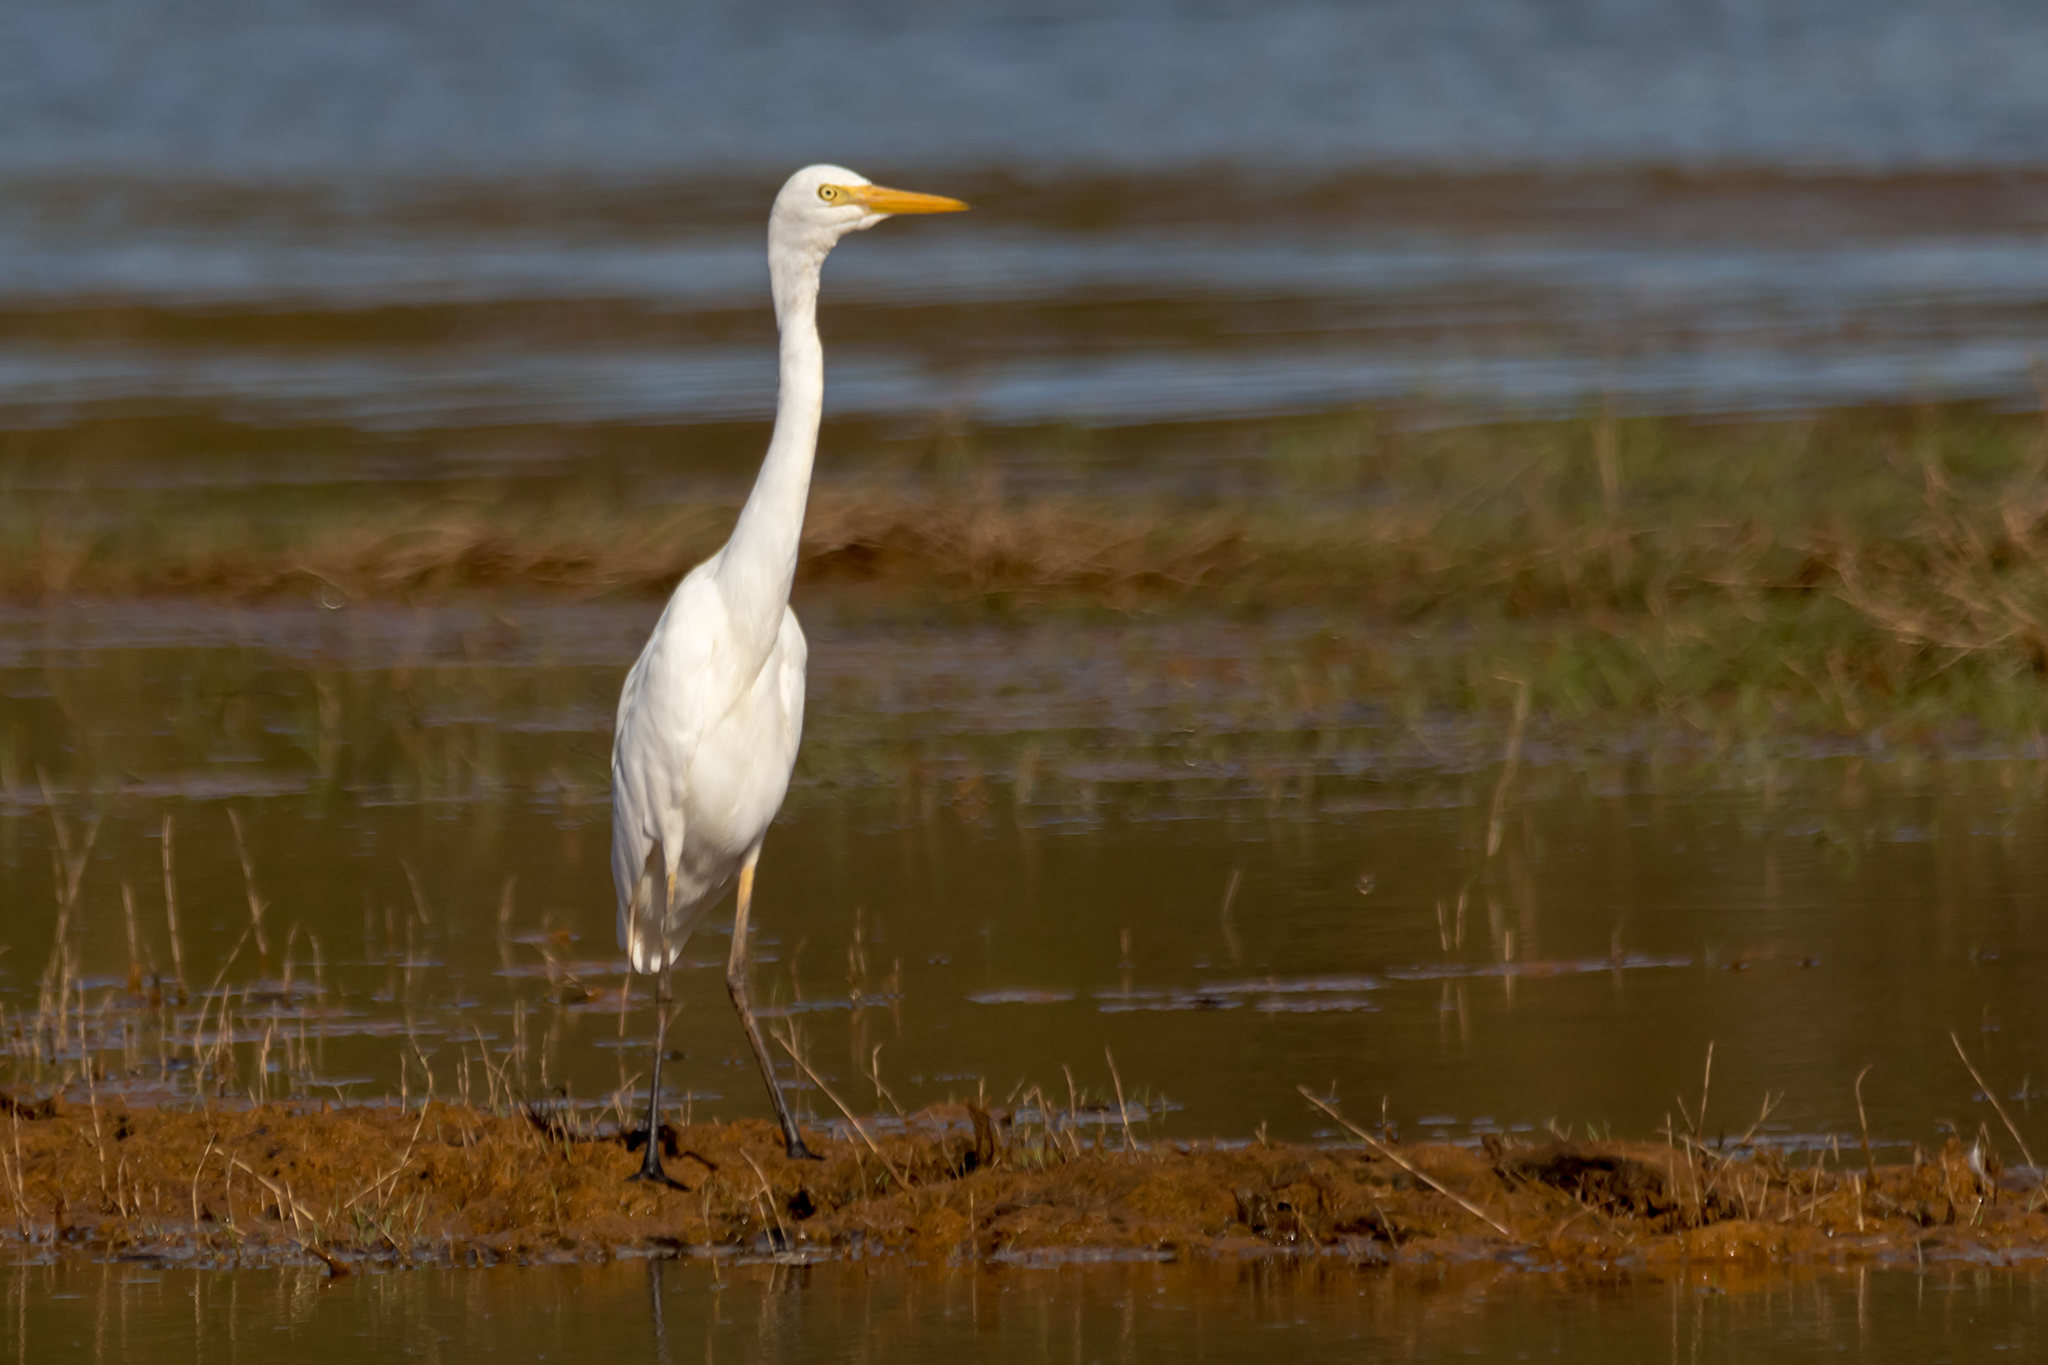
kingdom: Animalia
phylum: Chordata
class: Aves
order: Pelecaniformes
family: Ardeidae
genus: Egretta
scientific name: Egretta intermedia
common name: Intermediate egret
